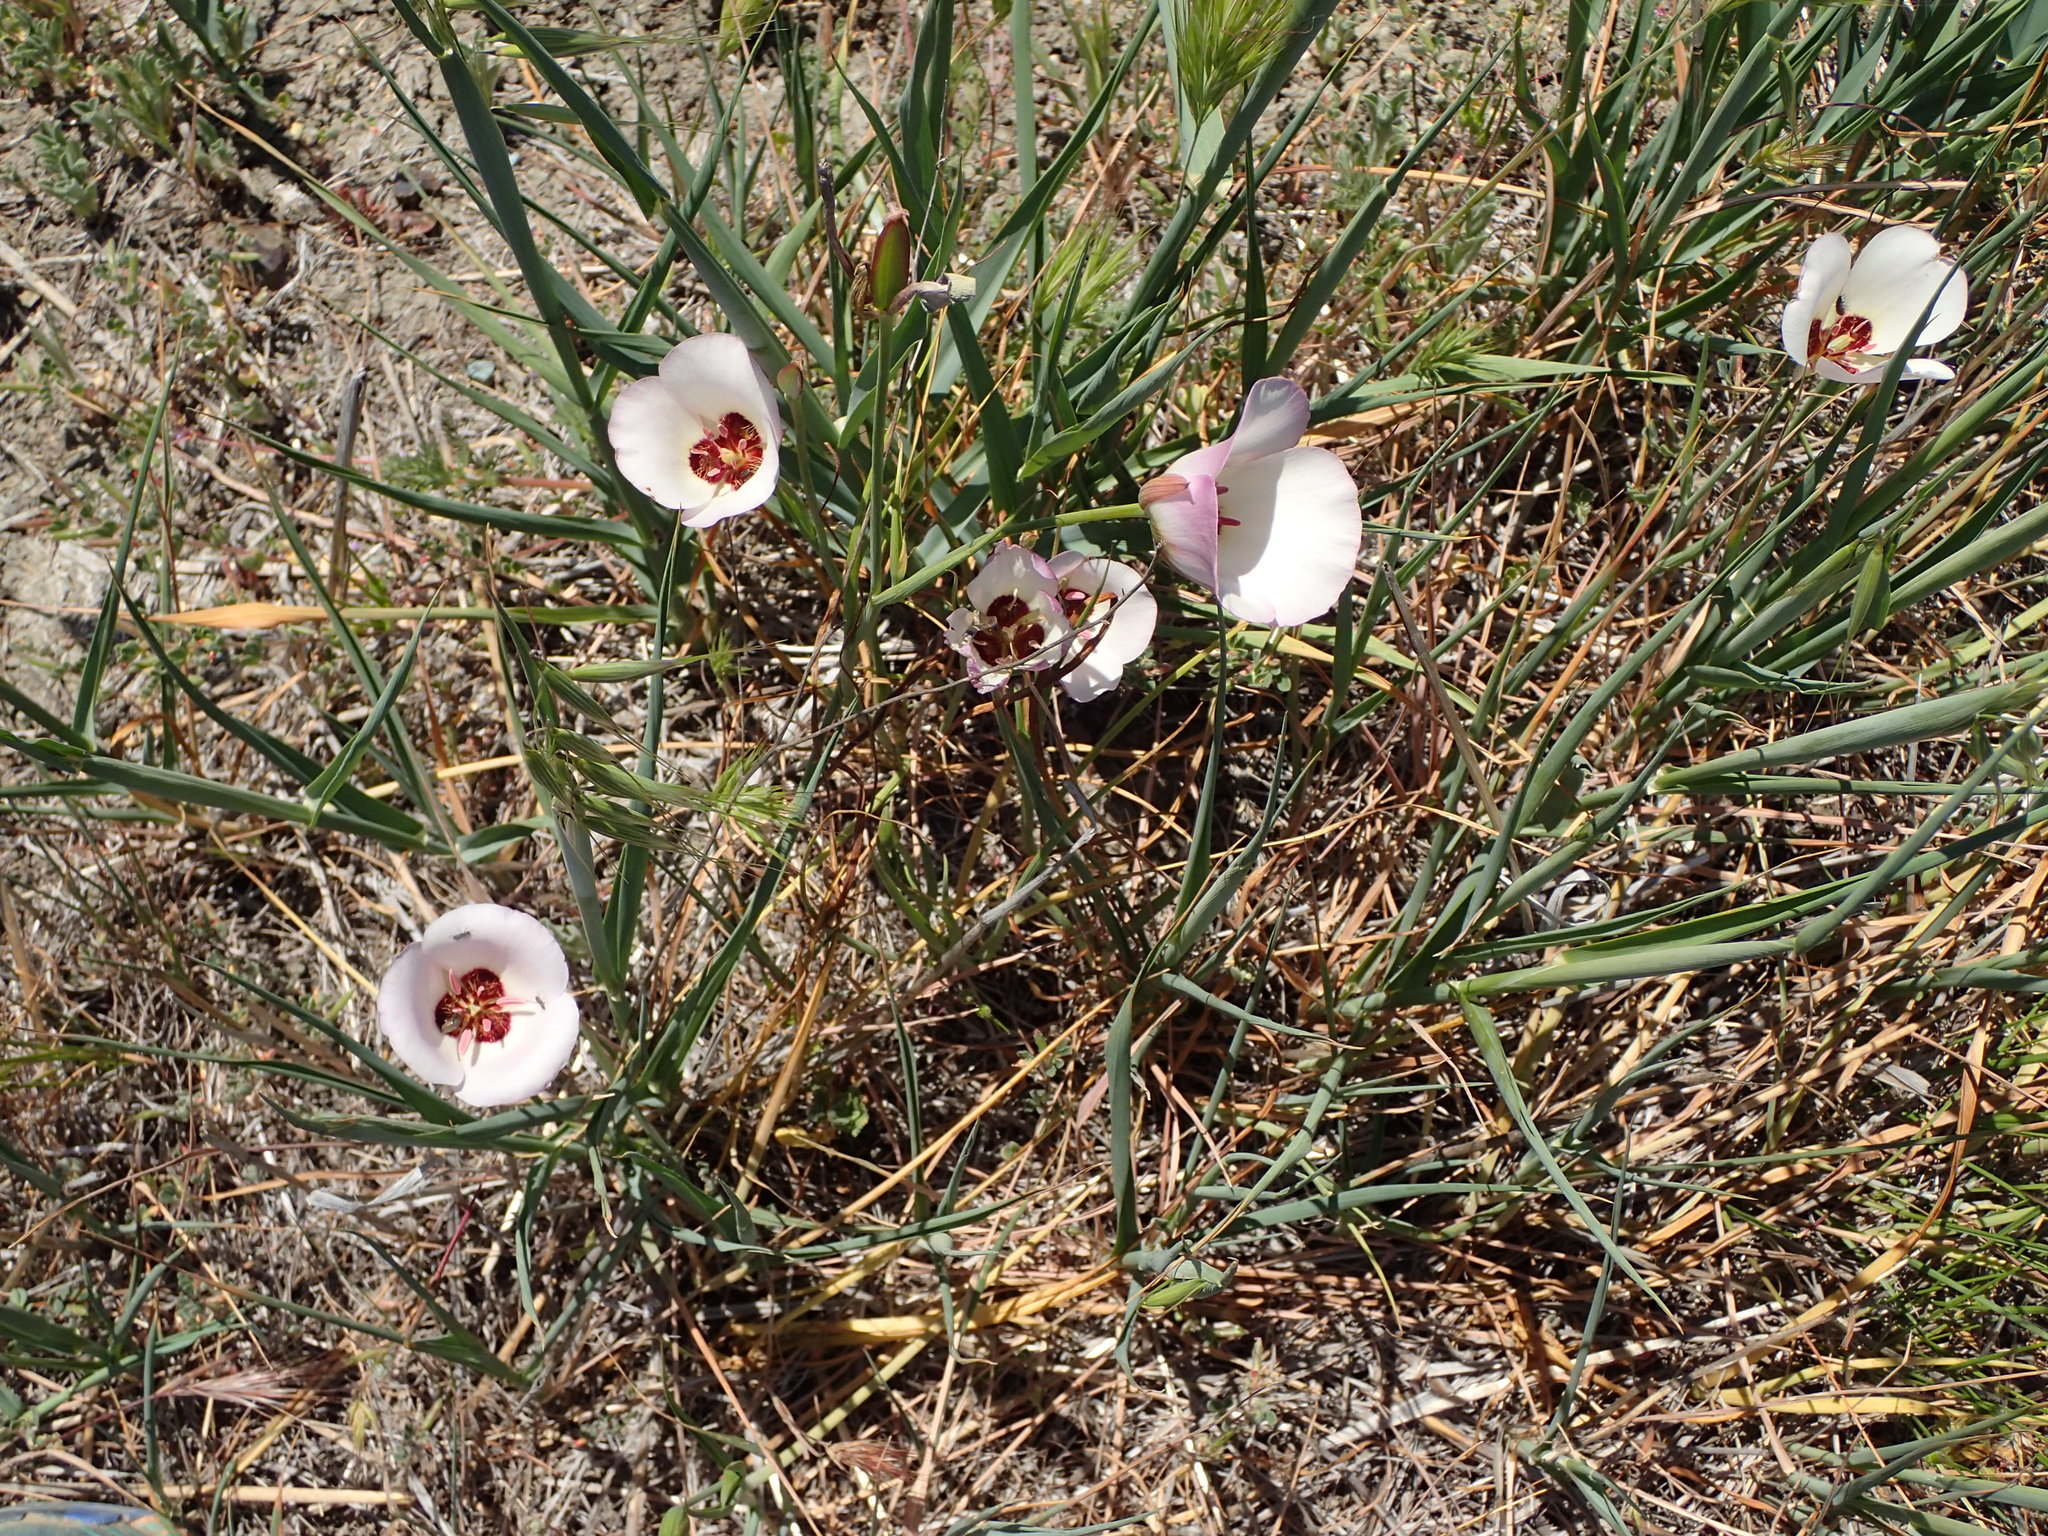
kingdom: Plantae
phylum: Tracheophyta
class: Liliopsida
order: Liliales
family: Liliaceae
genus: Calochortus
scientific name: Calochortus catalinae
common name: Catalina mariposa-lily
